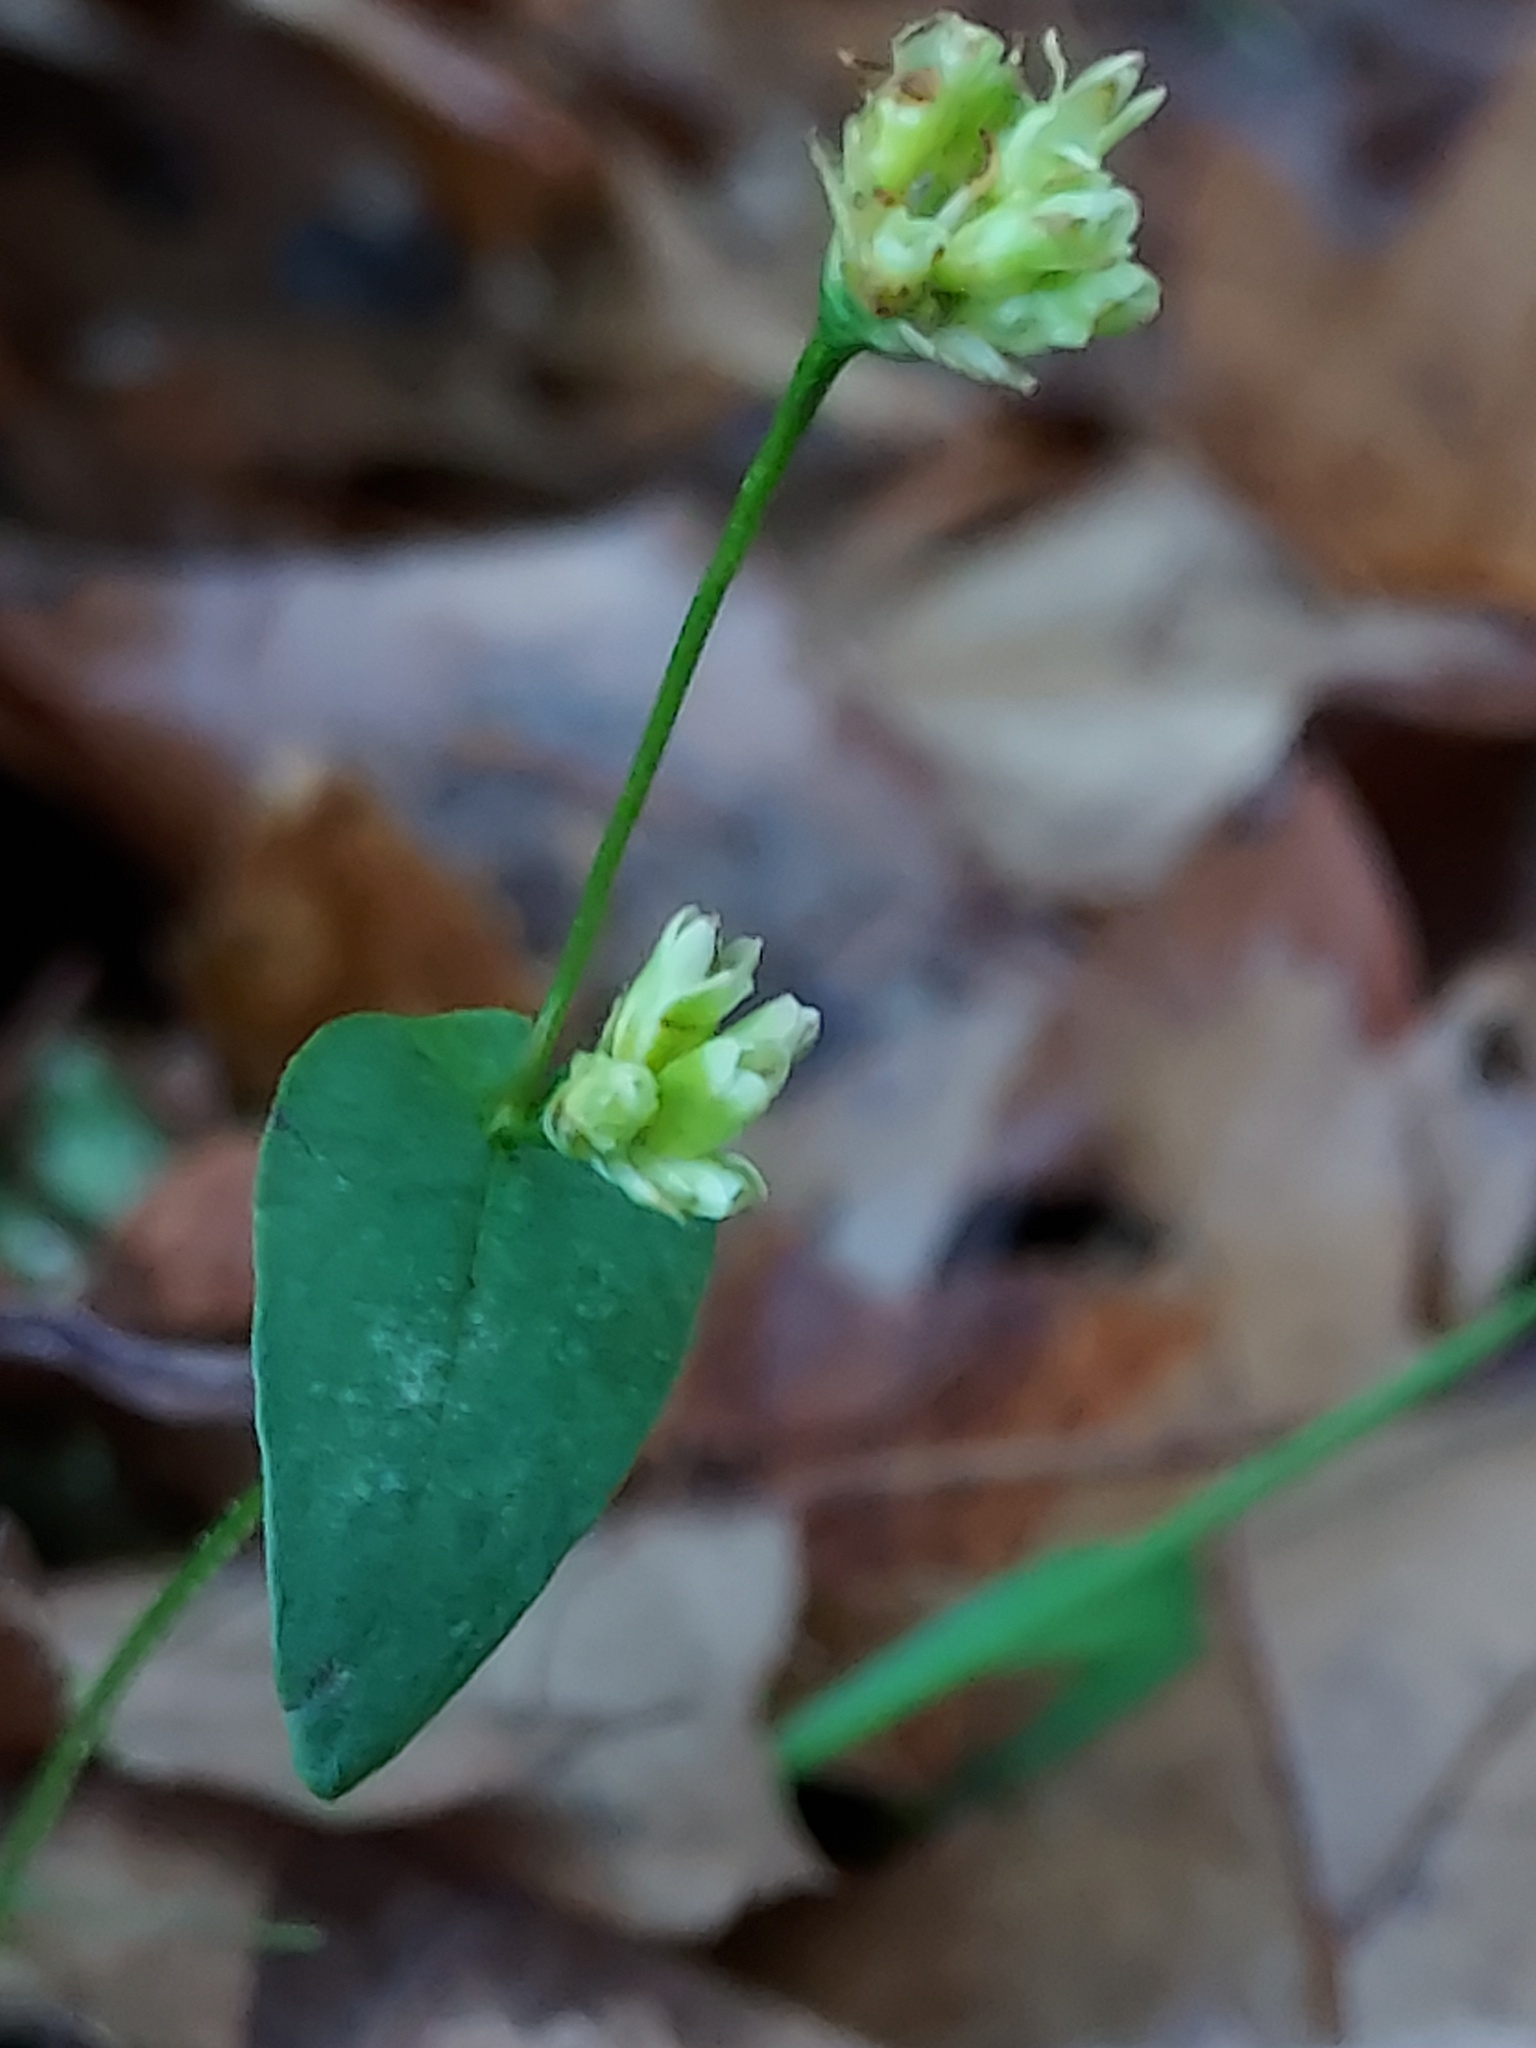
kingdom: Plantae
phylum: Tracheophyta
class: Magnoliopsida
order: Caryophyllales
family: Polygonaceae
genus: Persicaria
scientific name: Persicaria sagittata
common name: American tearthumb
